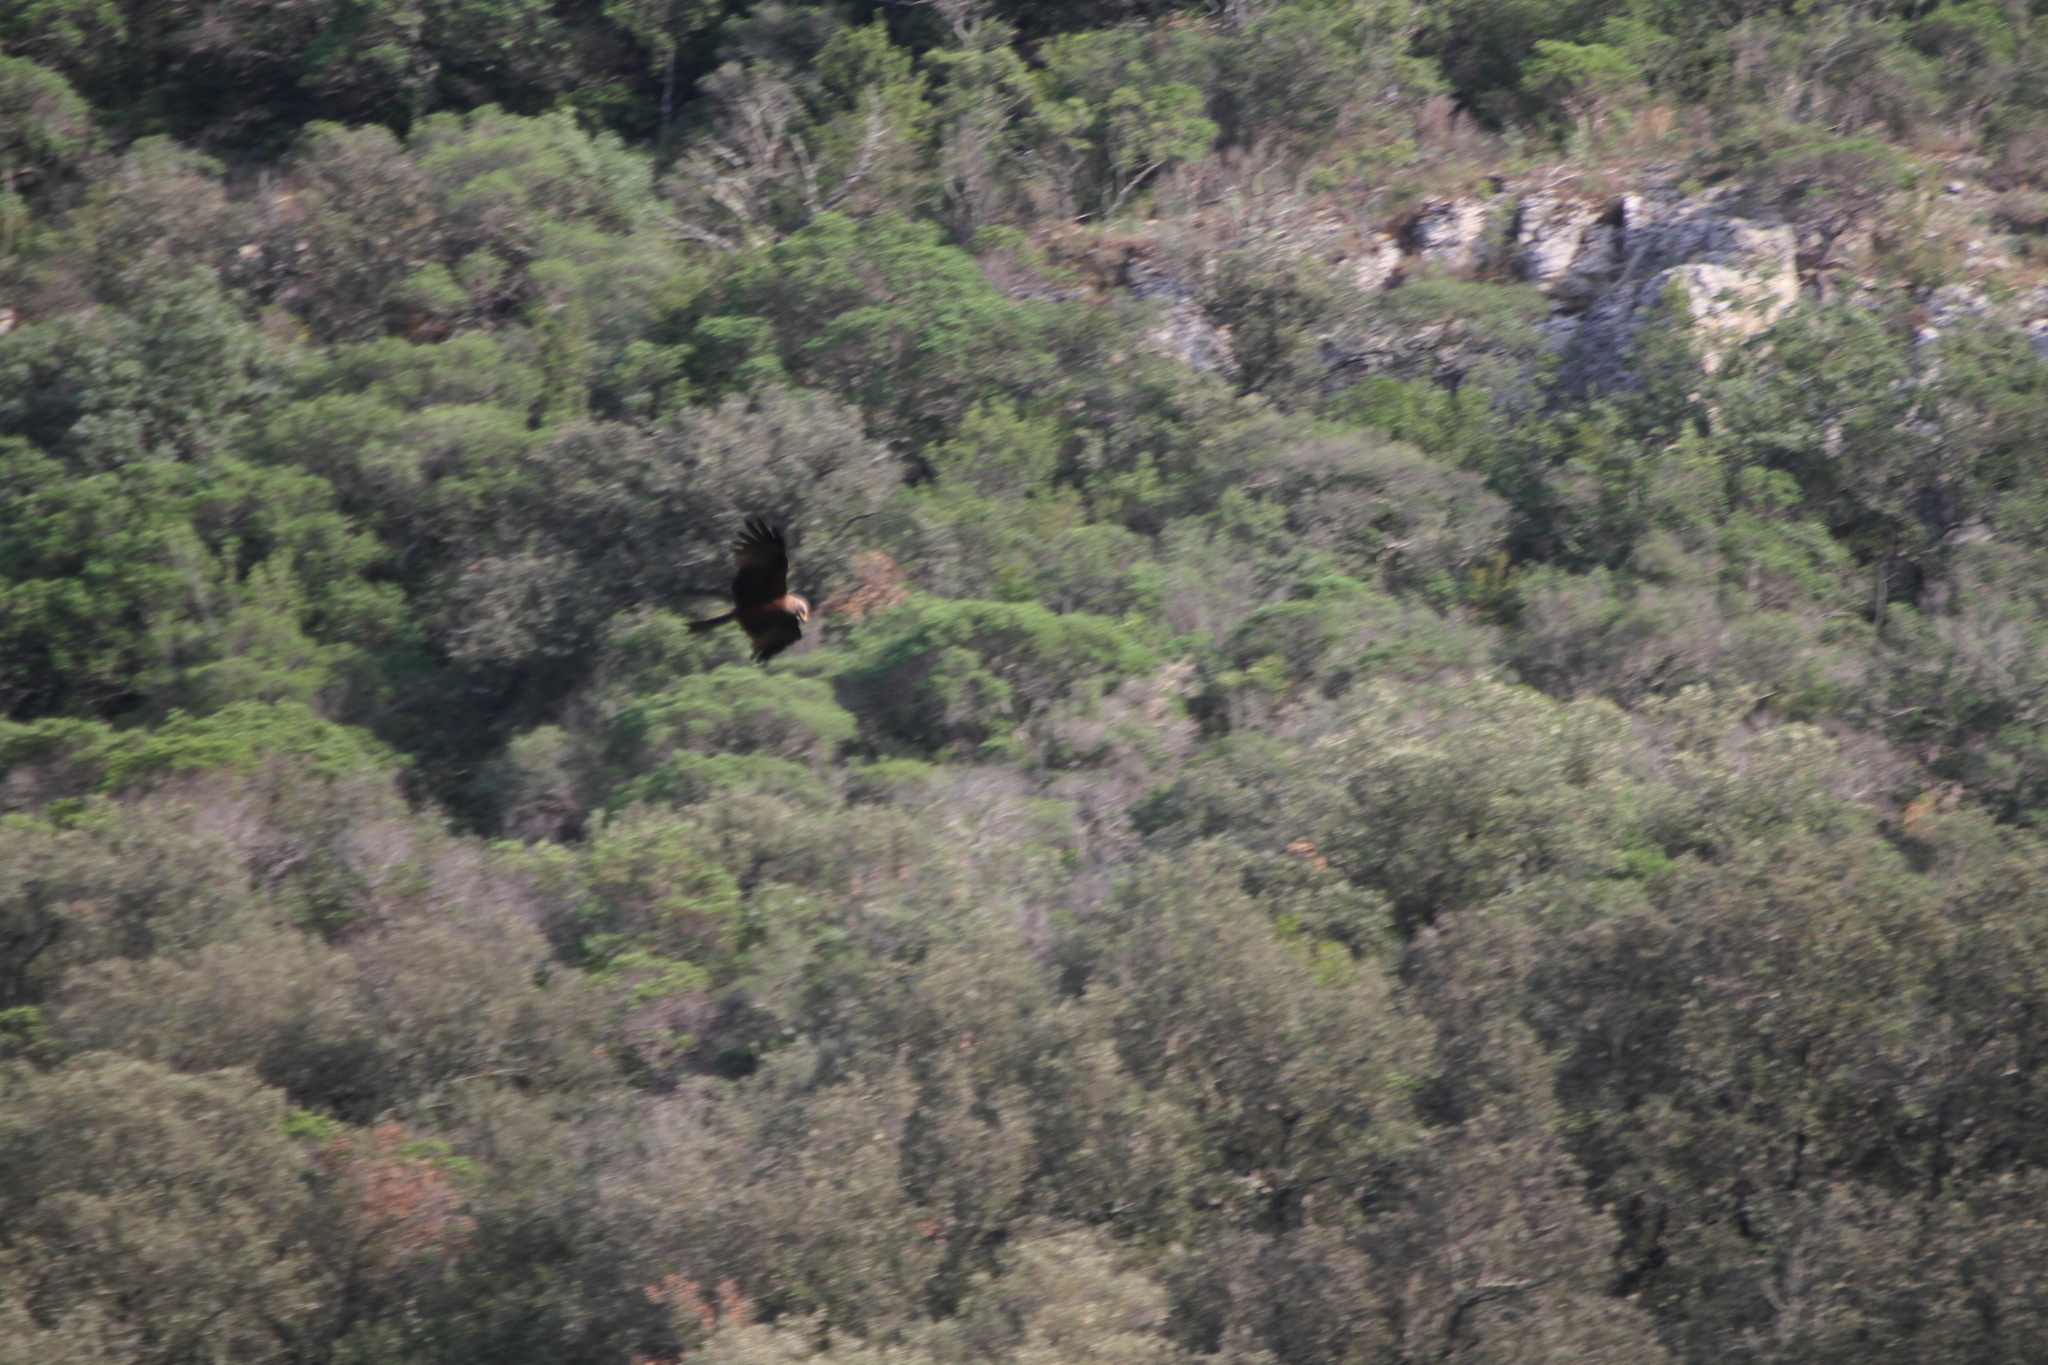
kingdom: Animalia
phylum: Chordata
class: Aves
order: Accipitriformes
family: Accipitridae
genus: Milvus
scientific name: Milvus migrans
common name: Black kite
